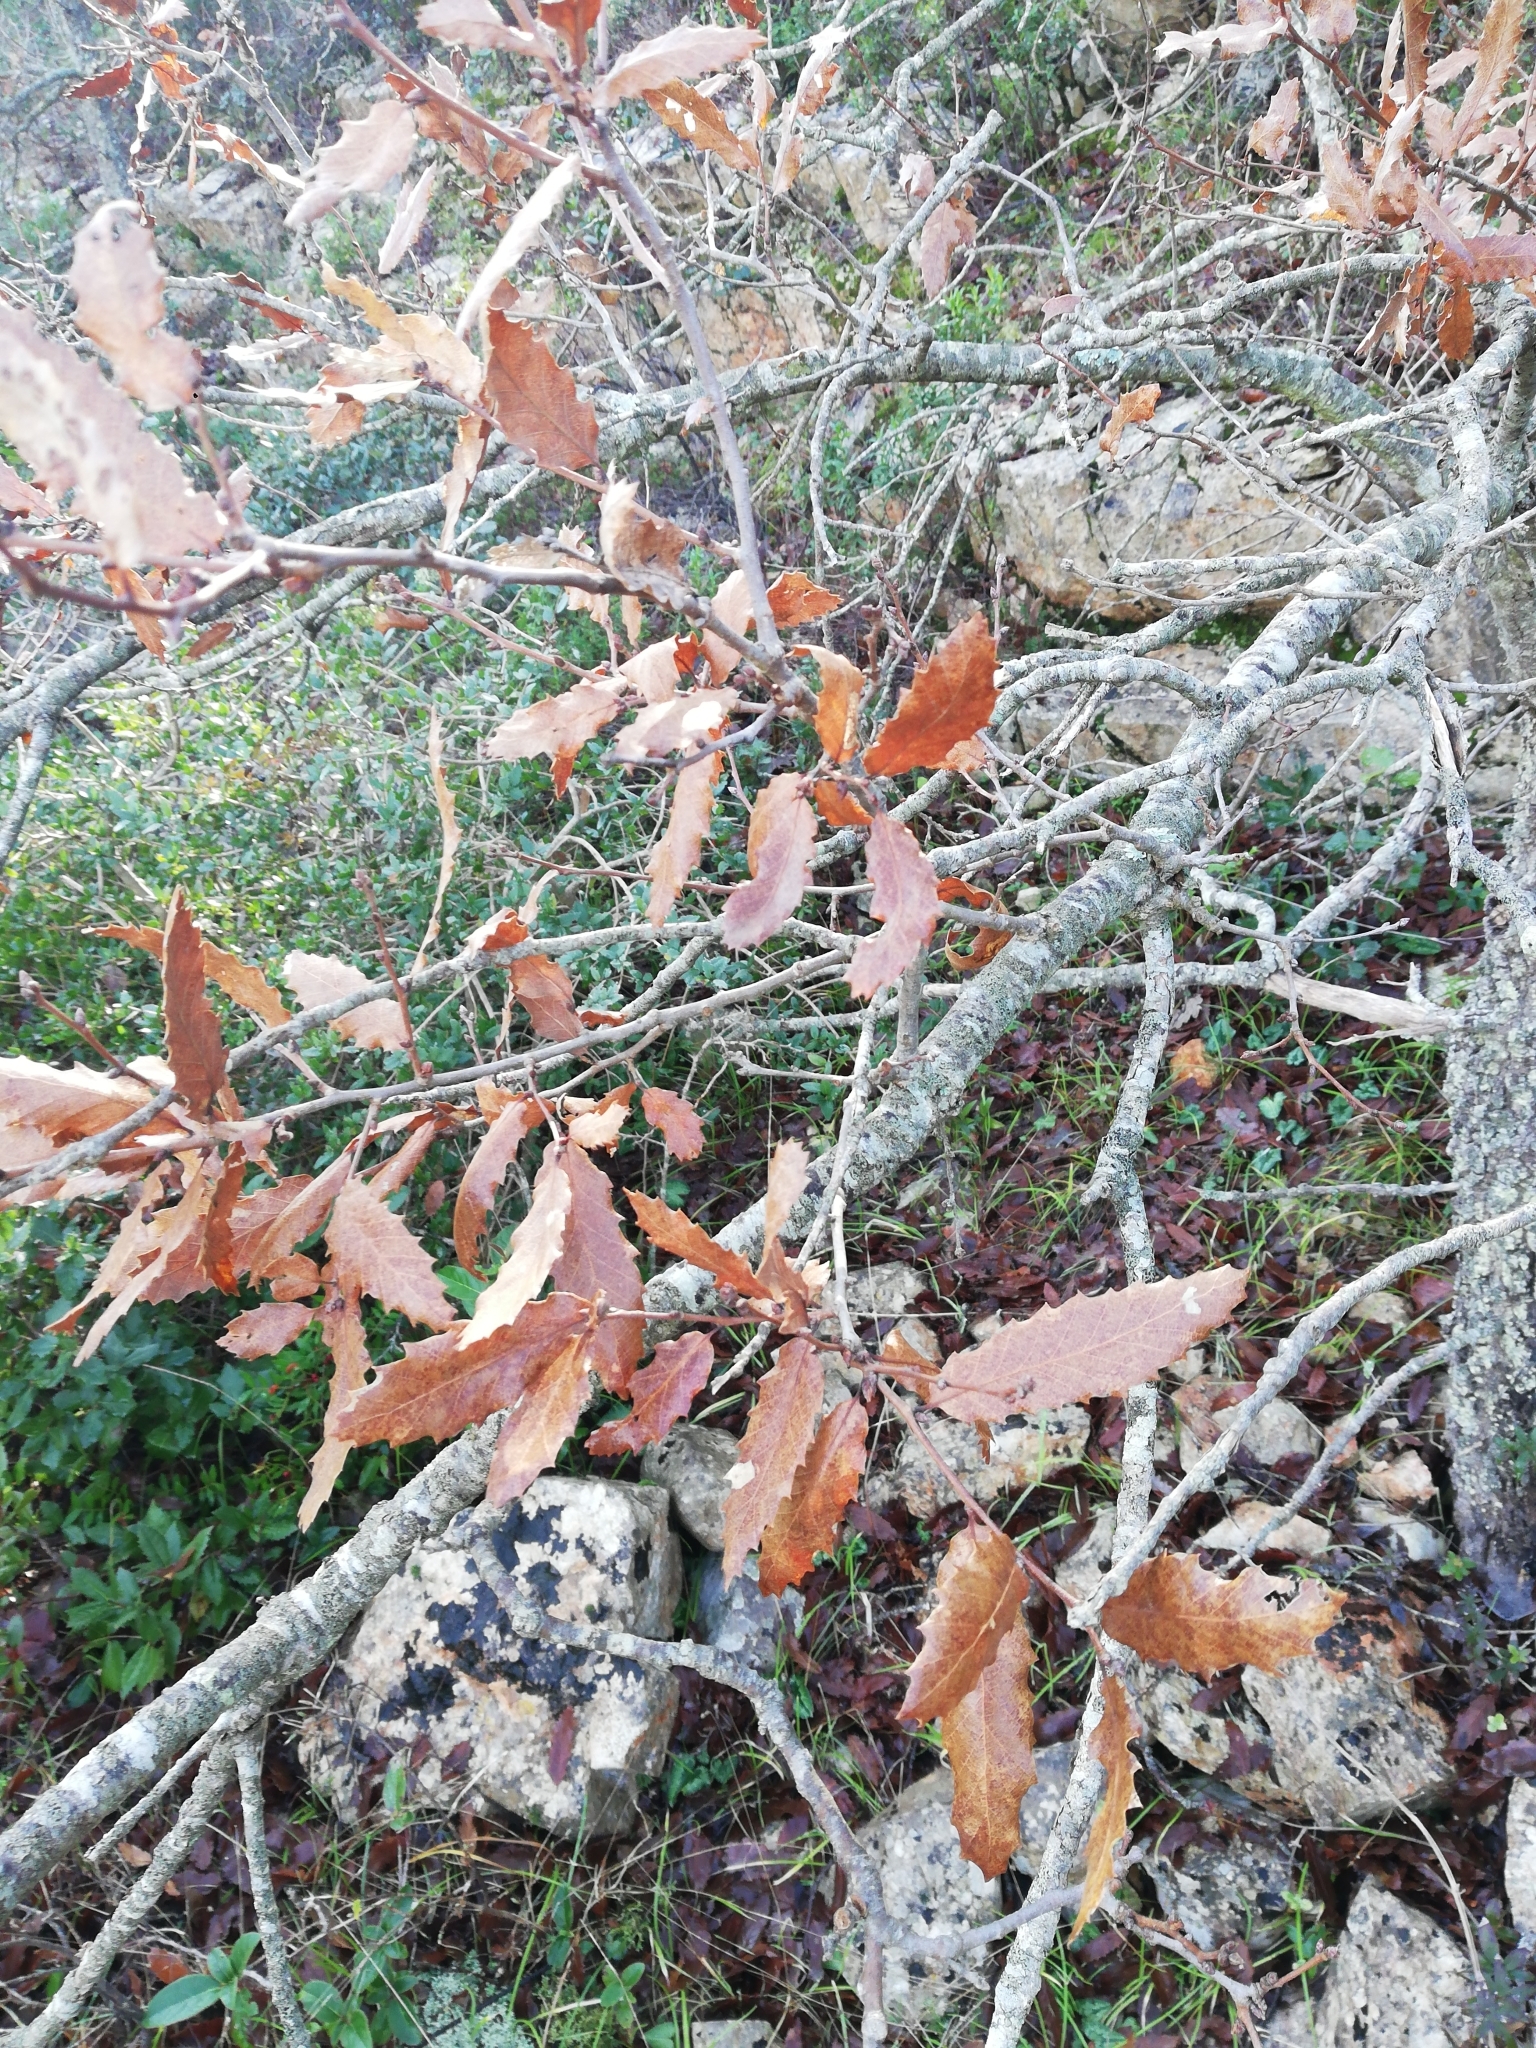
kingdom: Plantae
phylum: Tracheophyta
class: Magnoliopsida
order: Fagales
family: Fagaceae
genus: Quercus
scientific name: Quercus trojana
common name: Macedonian oak
